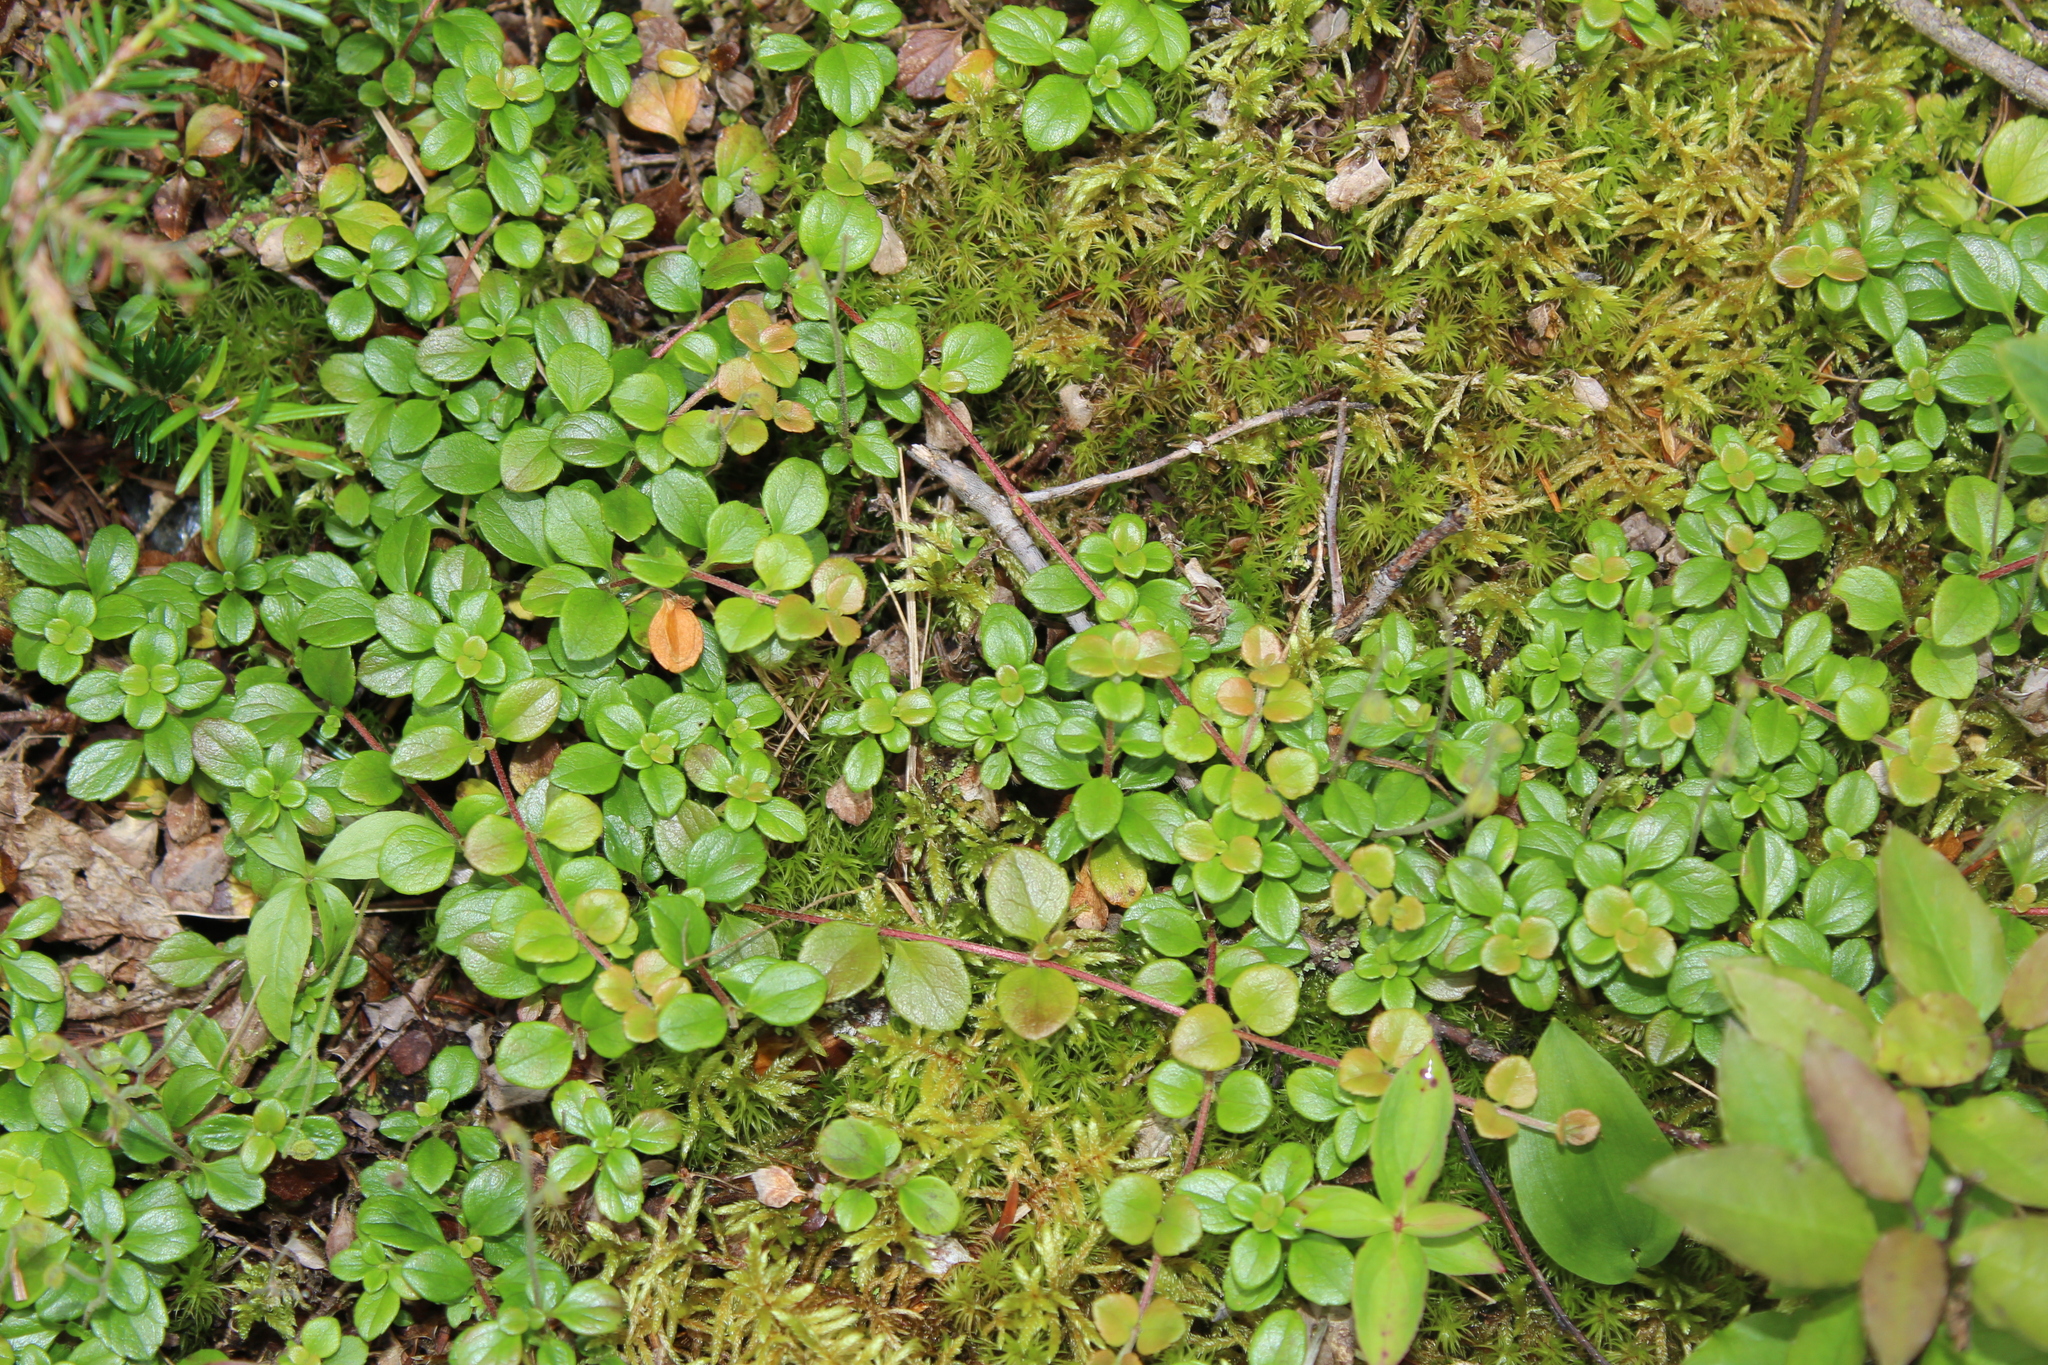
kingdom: Plantae
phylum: Tracheophyta
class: Magnoliopsida
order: Dipsacales
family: Caprifoliaceae
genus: Linnaea
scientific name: Linnaea borealis
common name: Twinflower
